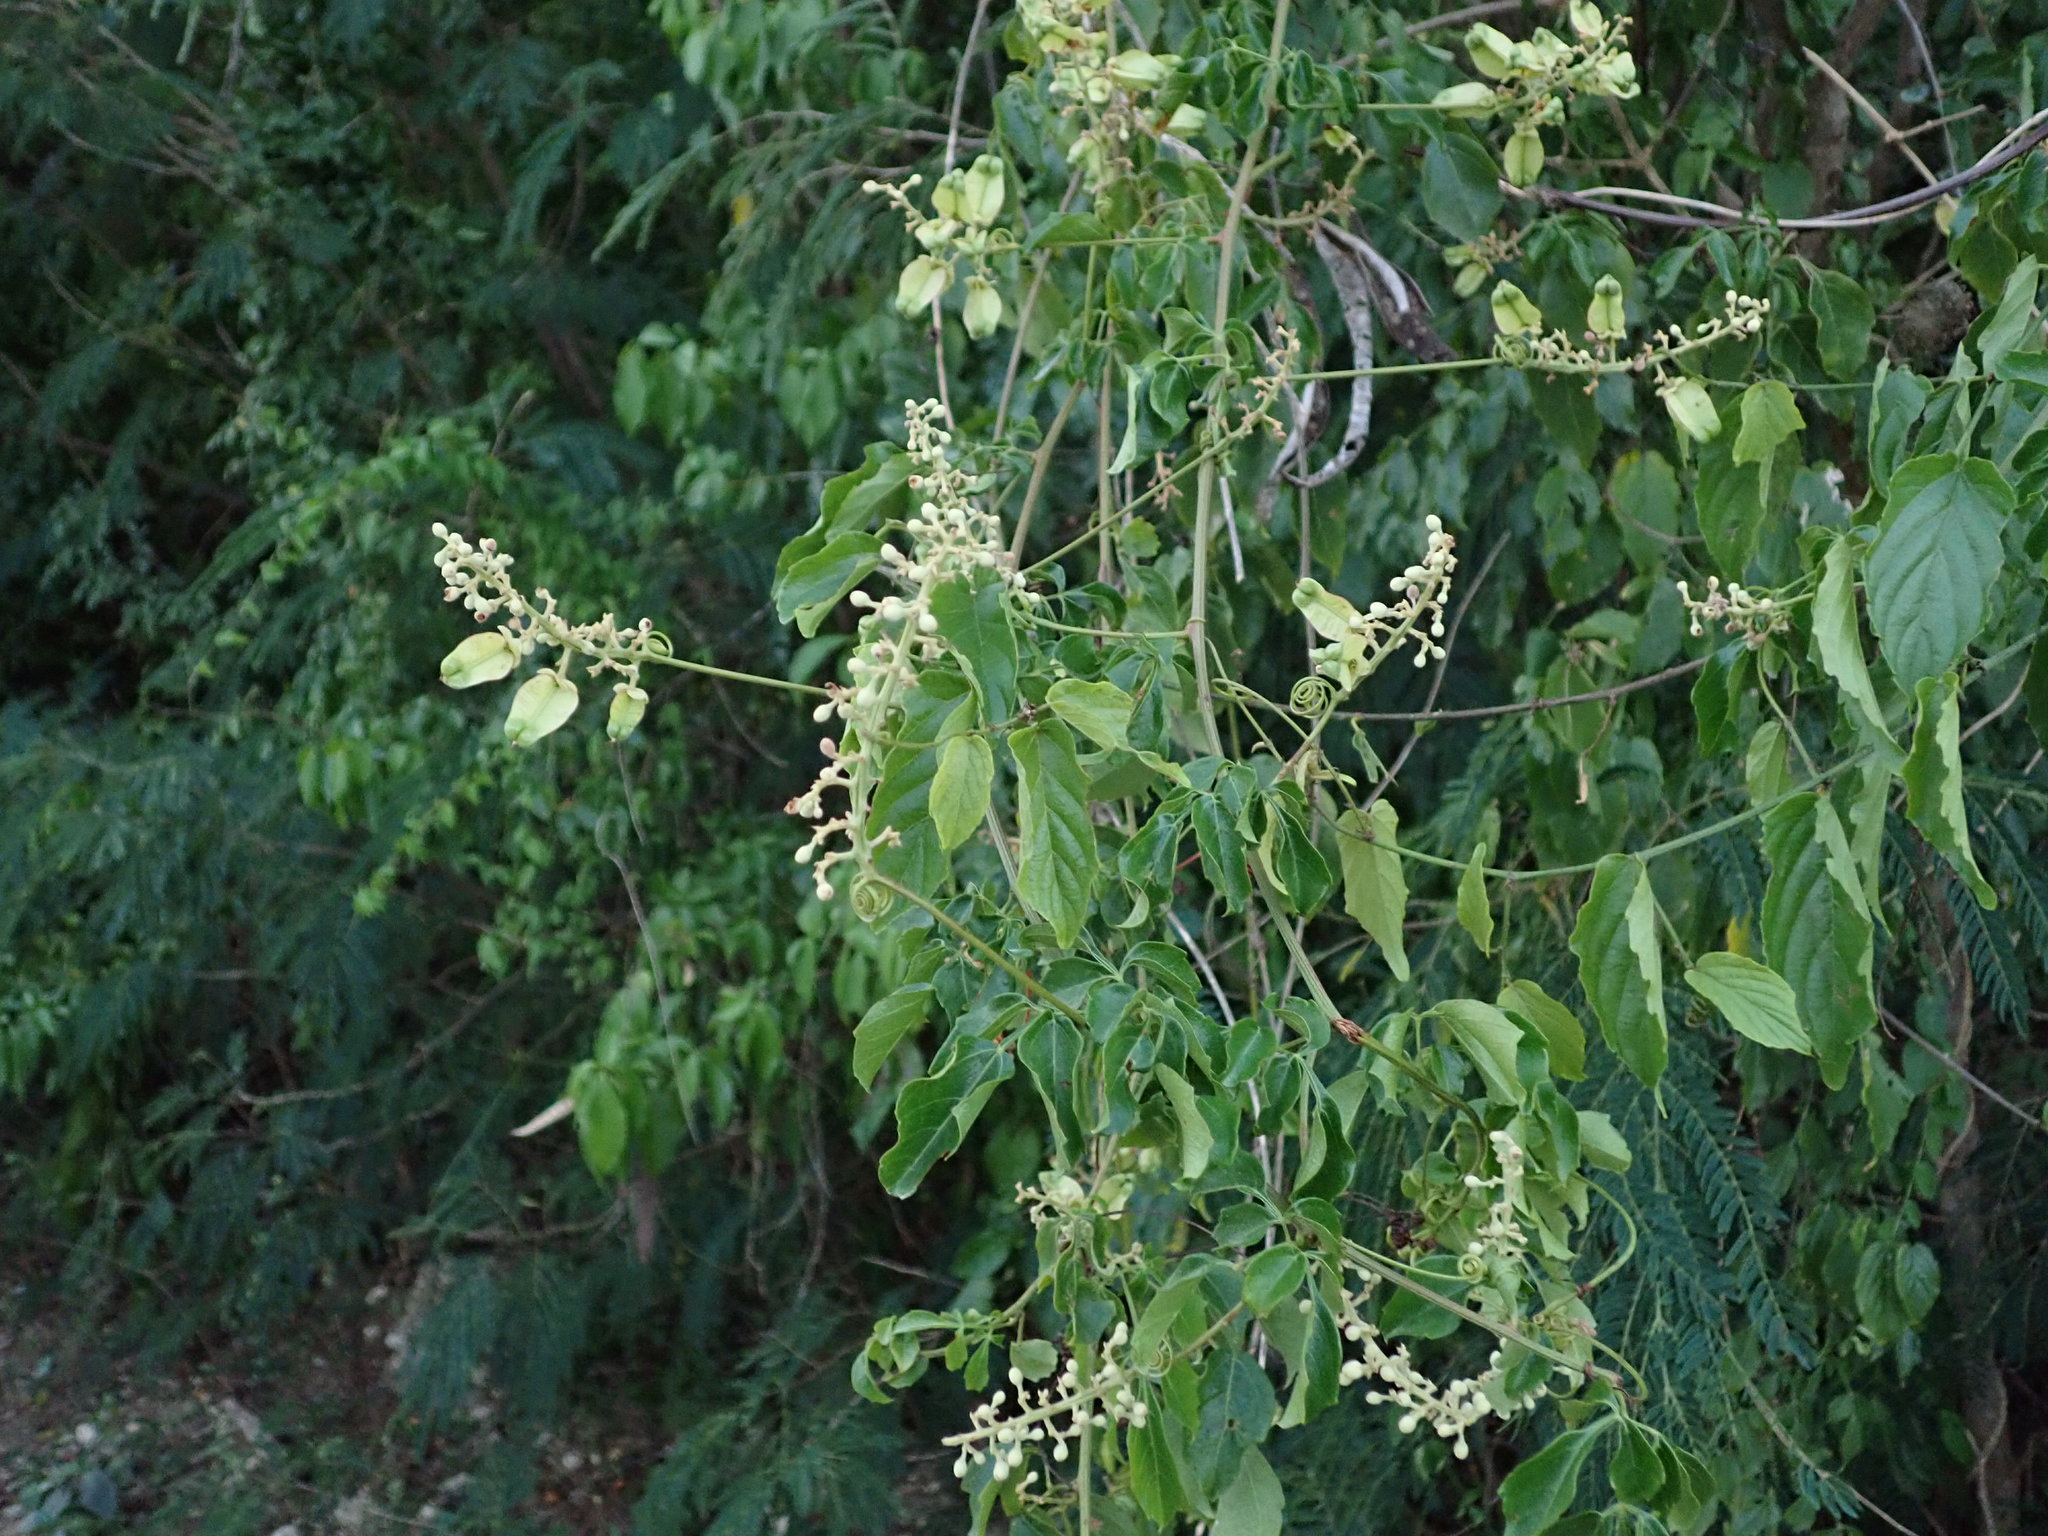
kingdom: Plantae
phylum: Tracheophyta
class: Magnoliopsida
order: Sapindales
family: Sapindaceae
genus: Serjania
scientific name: Serjania lucida
